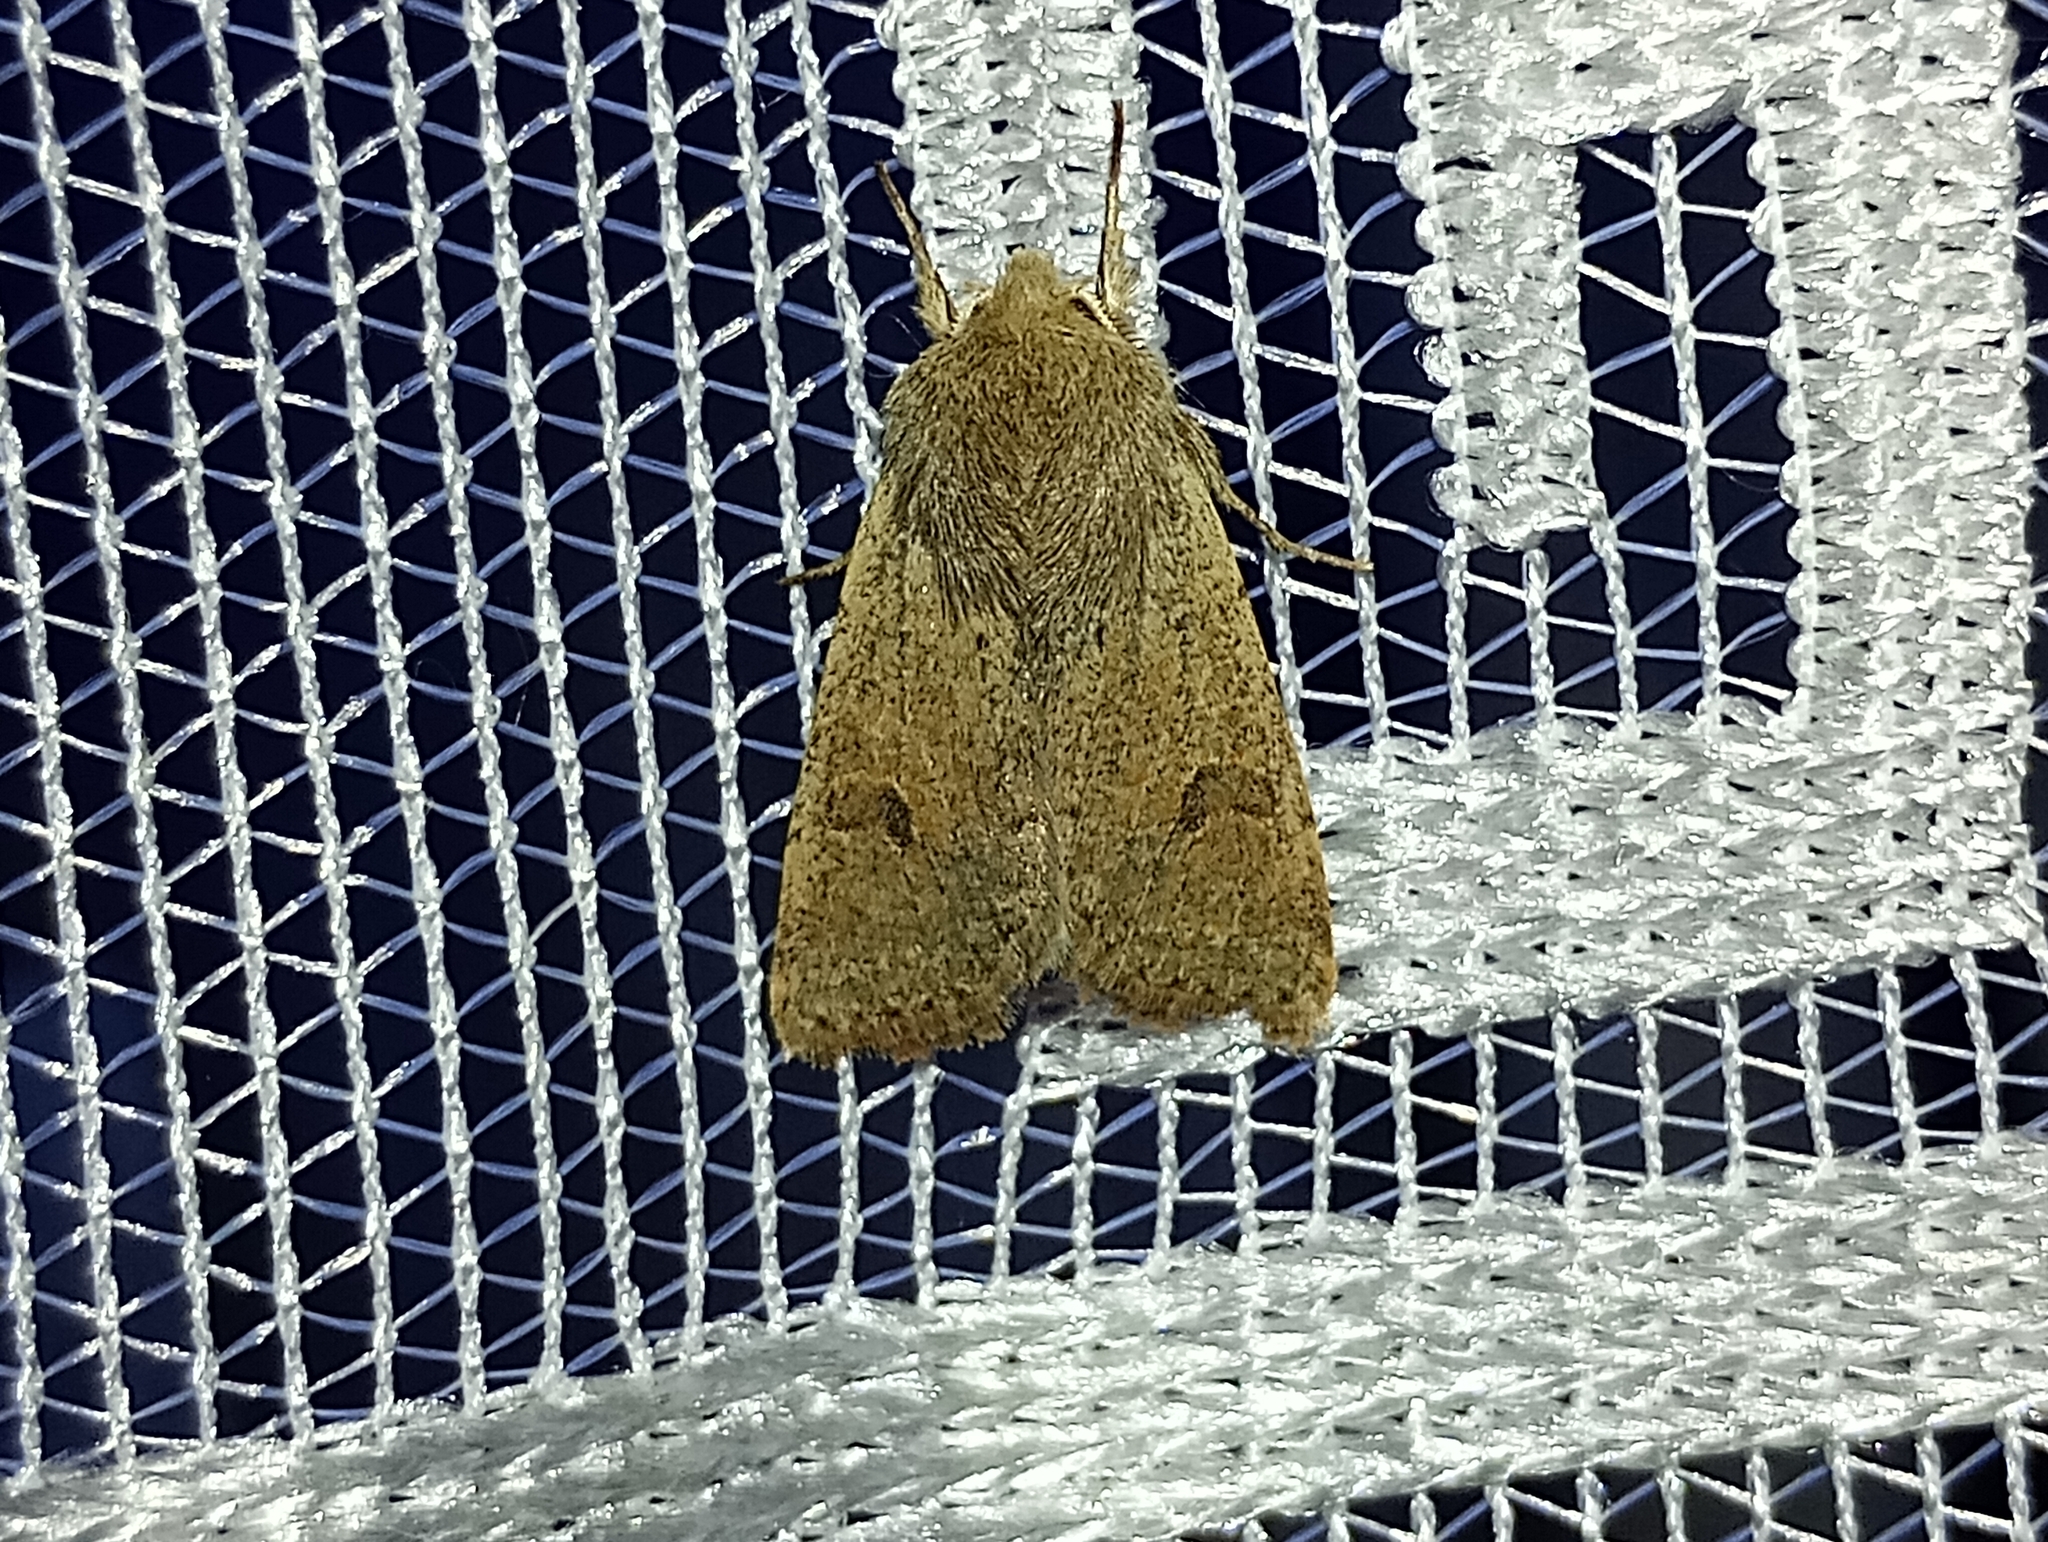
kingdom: Animalia
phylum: Arthropoda
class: Insecta
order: Lepidoptera
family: Noctuidae
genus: Orthosia
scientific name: Orthosia cruda
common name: Small quaker
